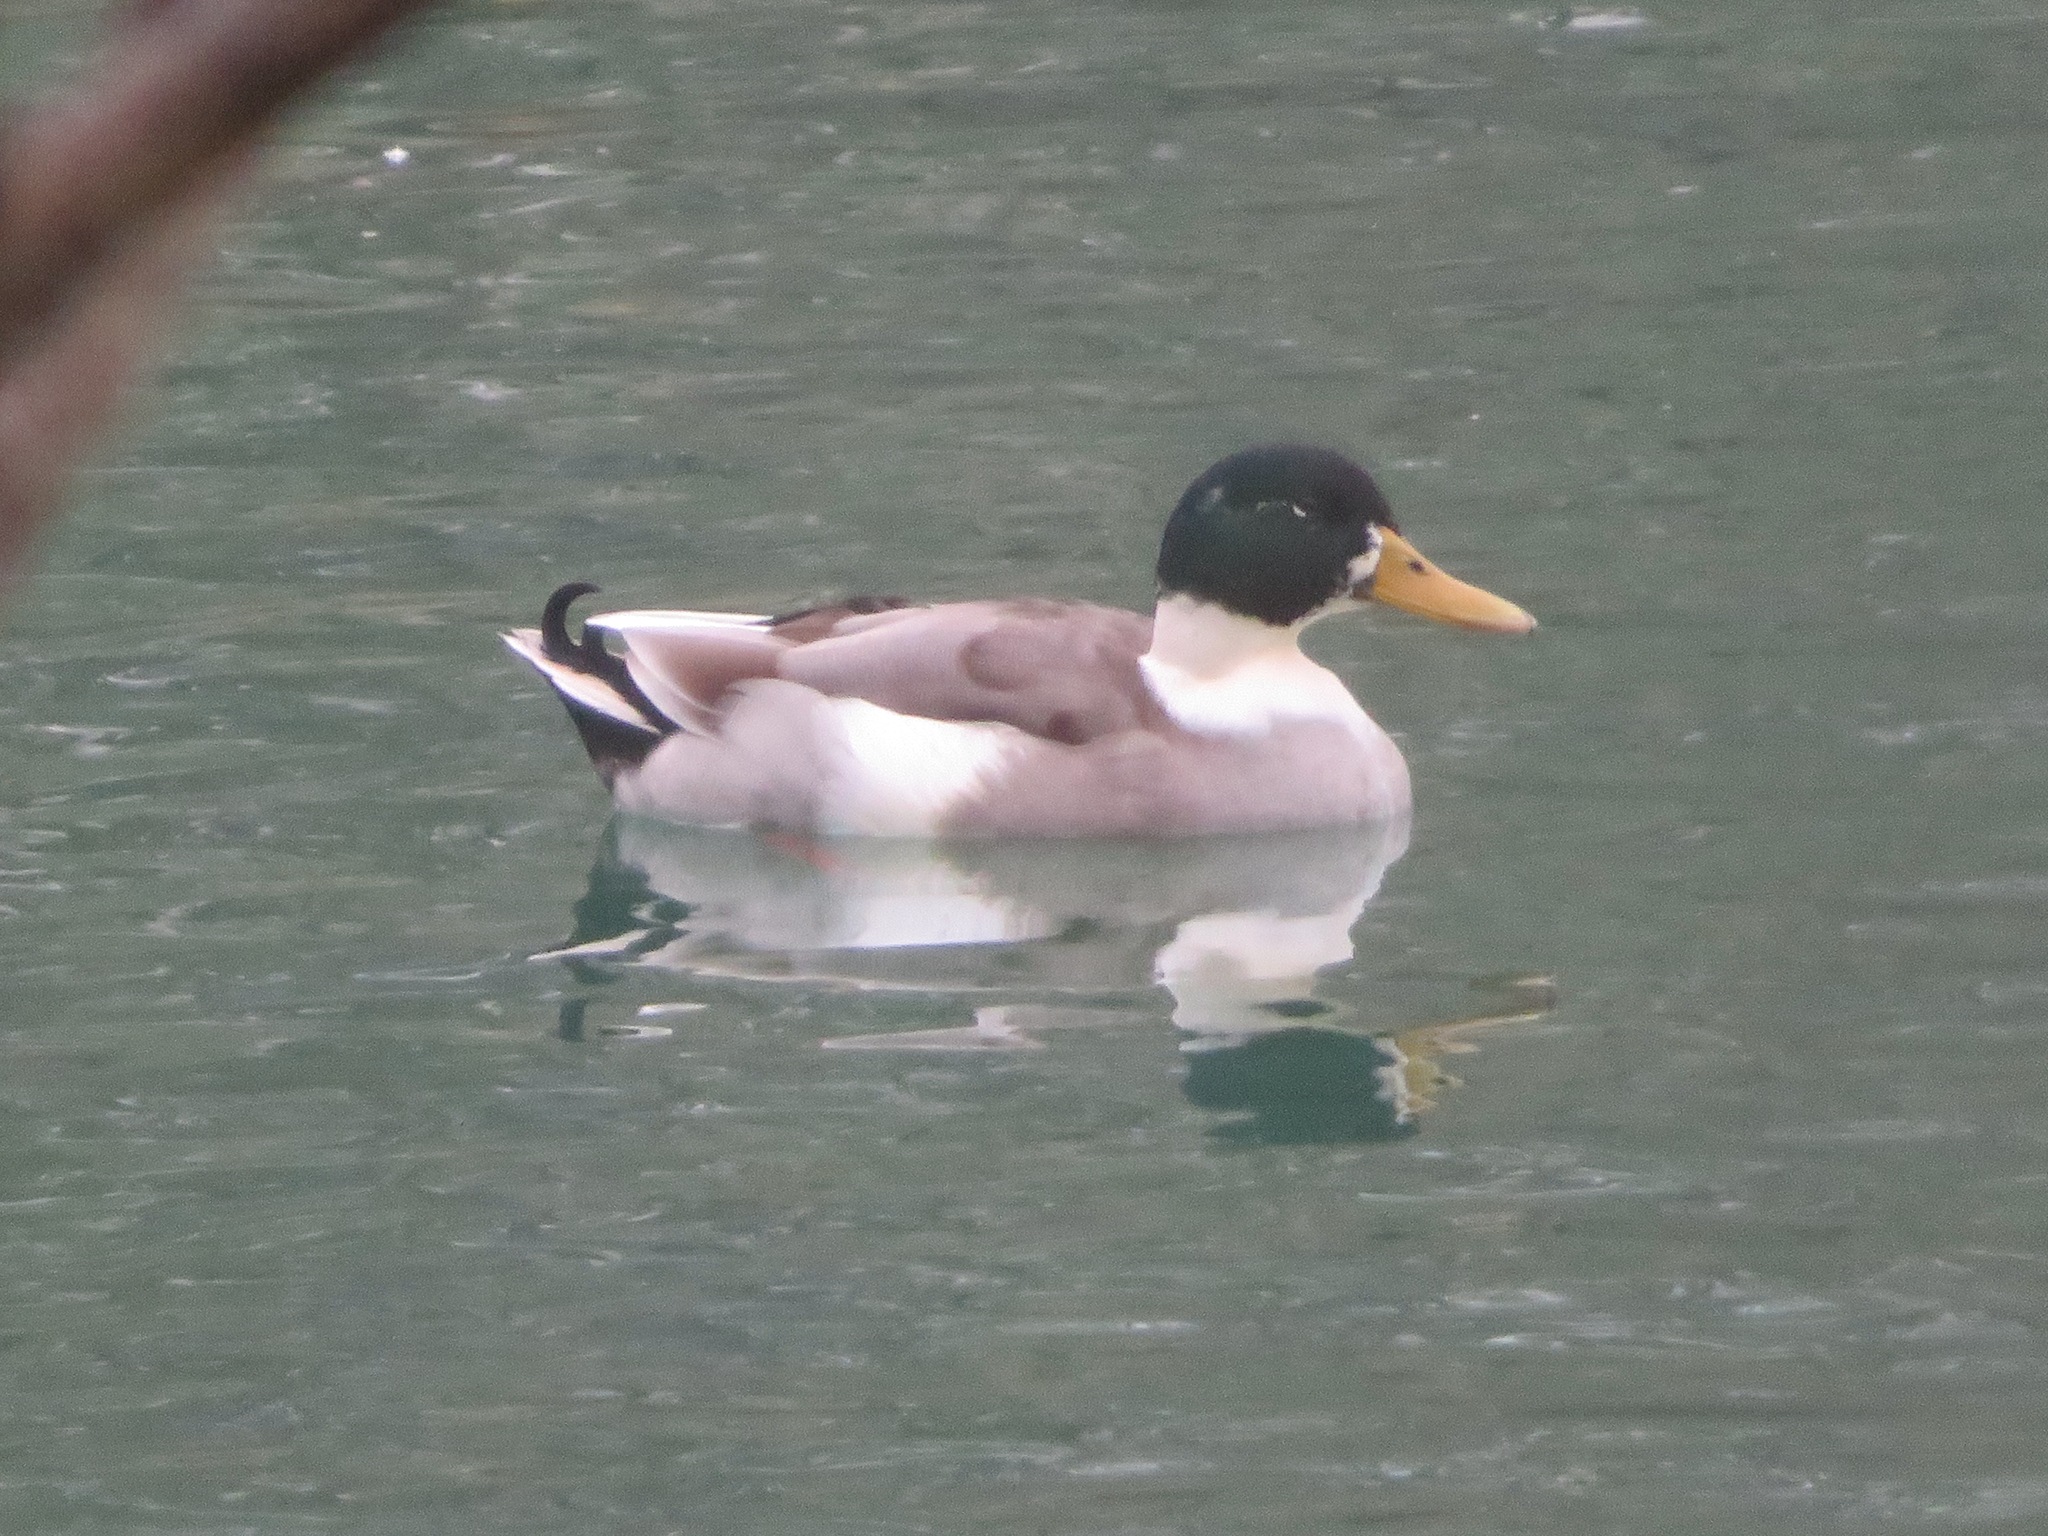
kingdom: Animalia
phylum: Chordata
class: Aves
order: Anseriformes
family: Anatidae
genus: Anas
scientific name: Anas platyrhynchos
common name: Mallard
